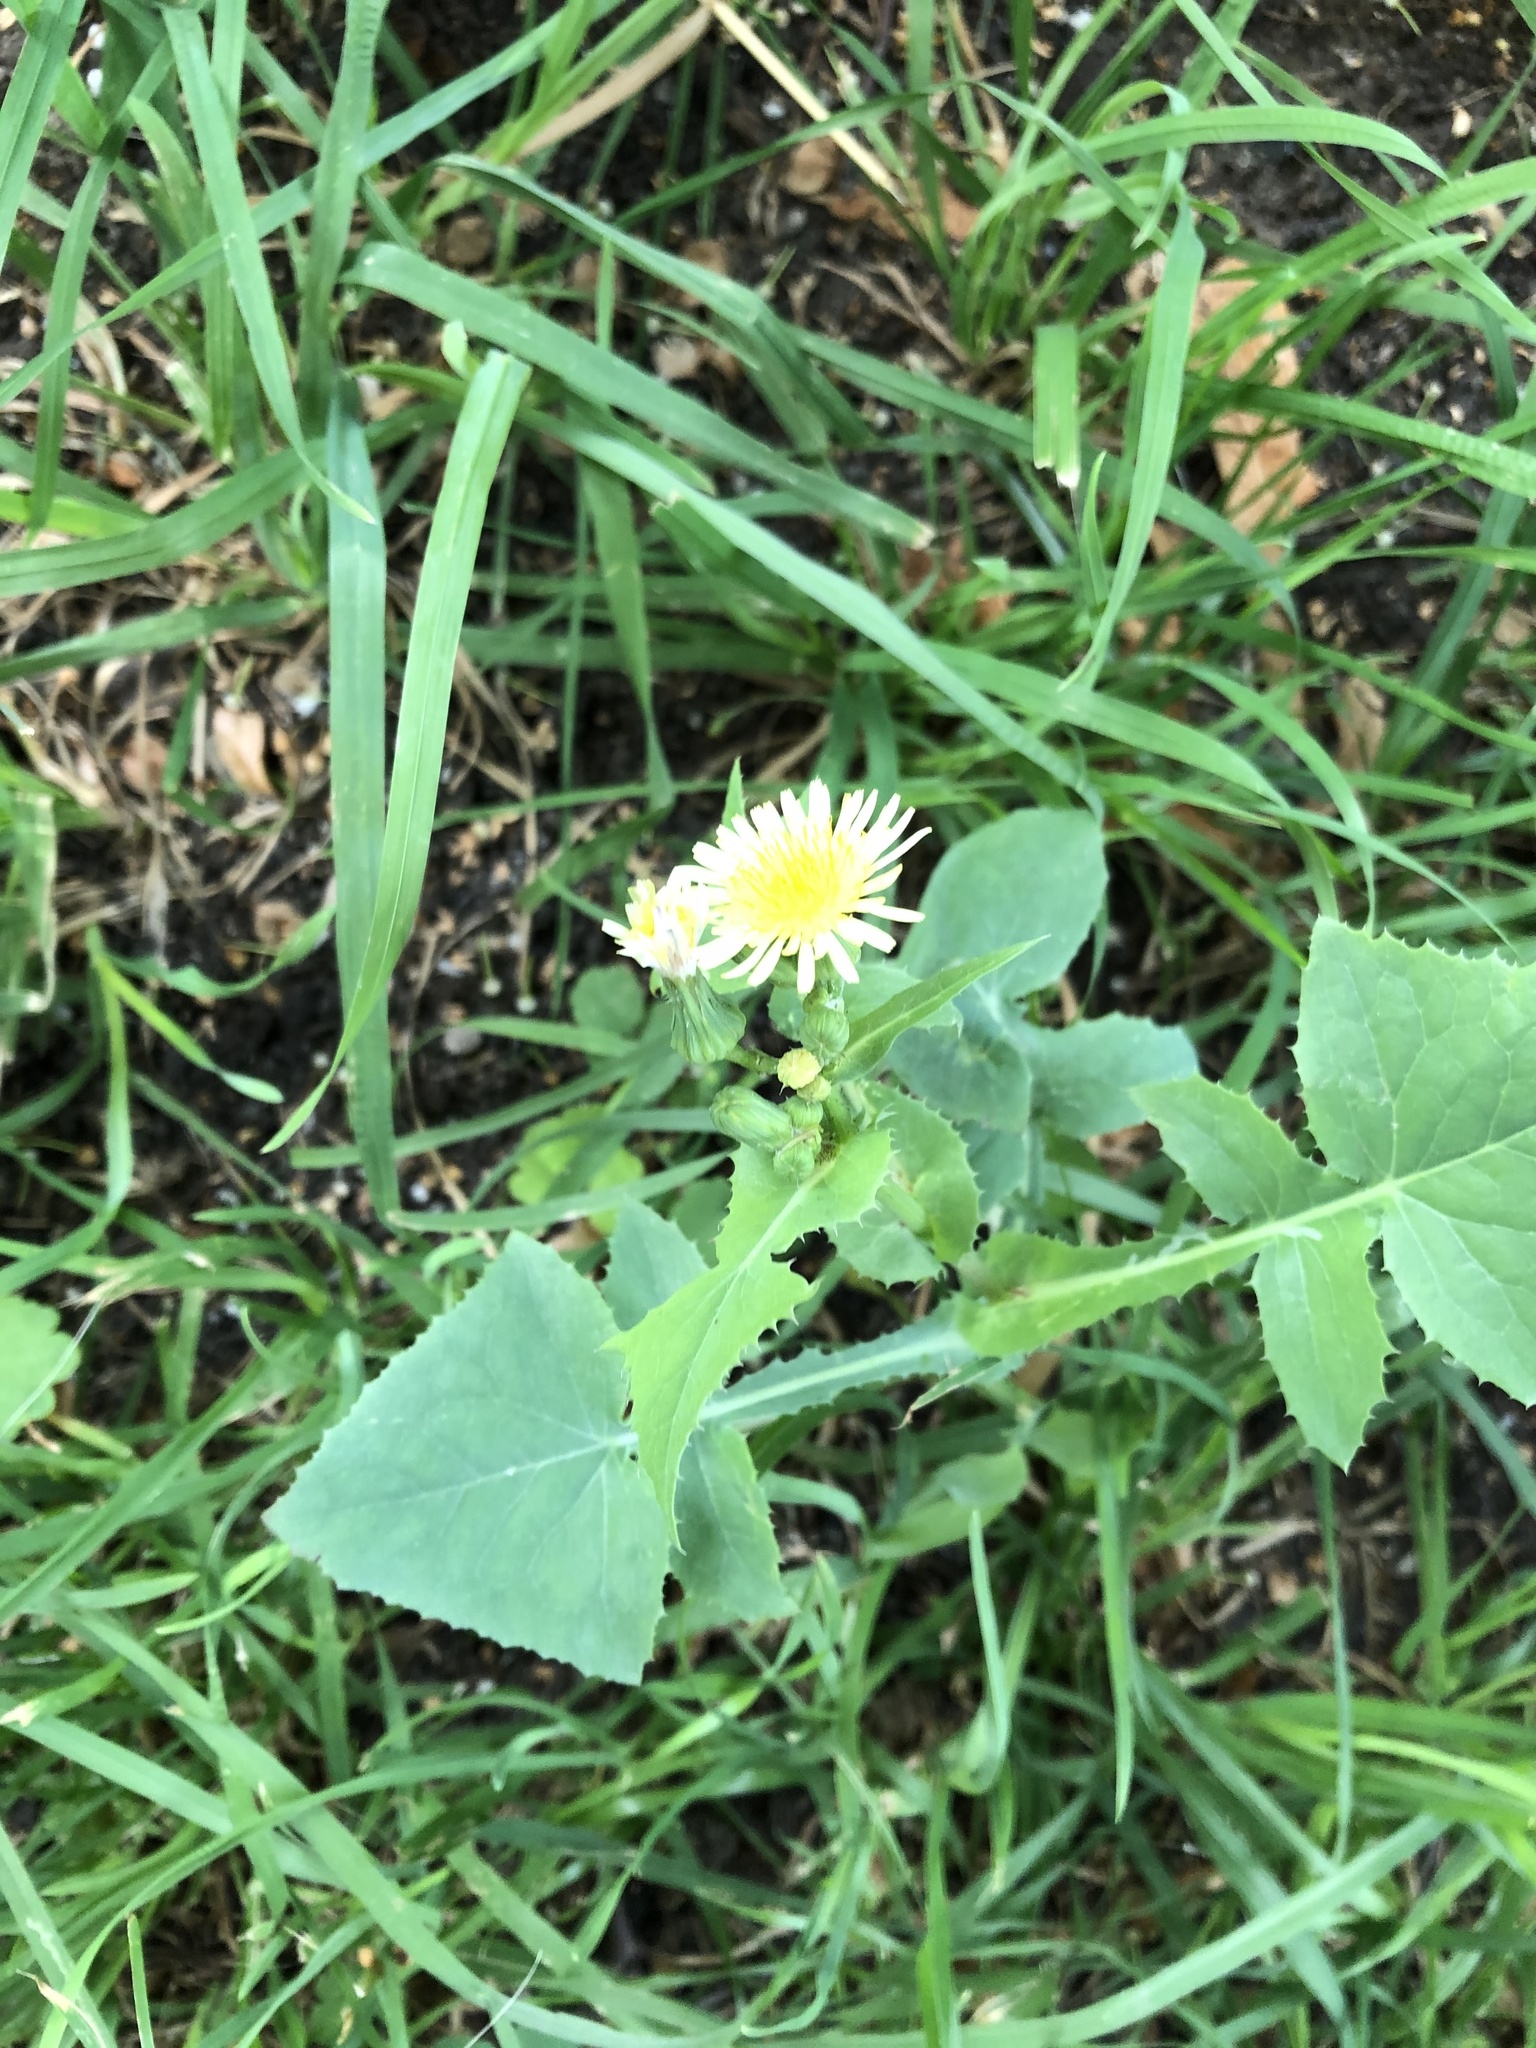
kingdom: Plantae
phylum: Tracheophyta
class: Magnoliopsida
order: Asterales
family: Asteraceae
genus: Sonchus
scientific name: Sonchus oleraceus
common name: Common sowthistle
